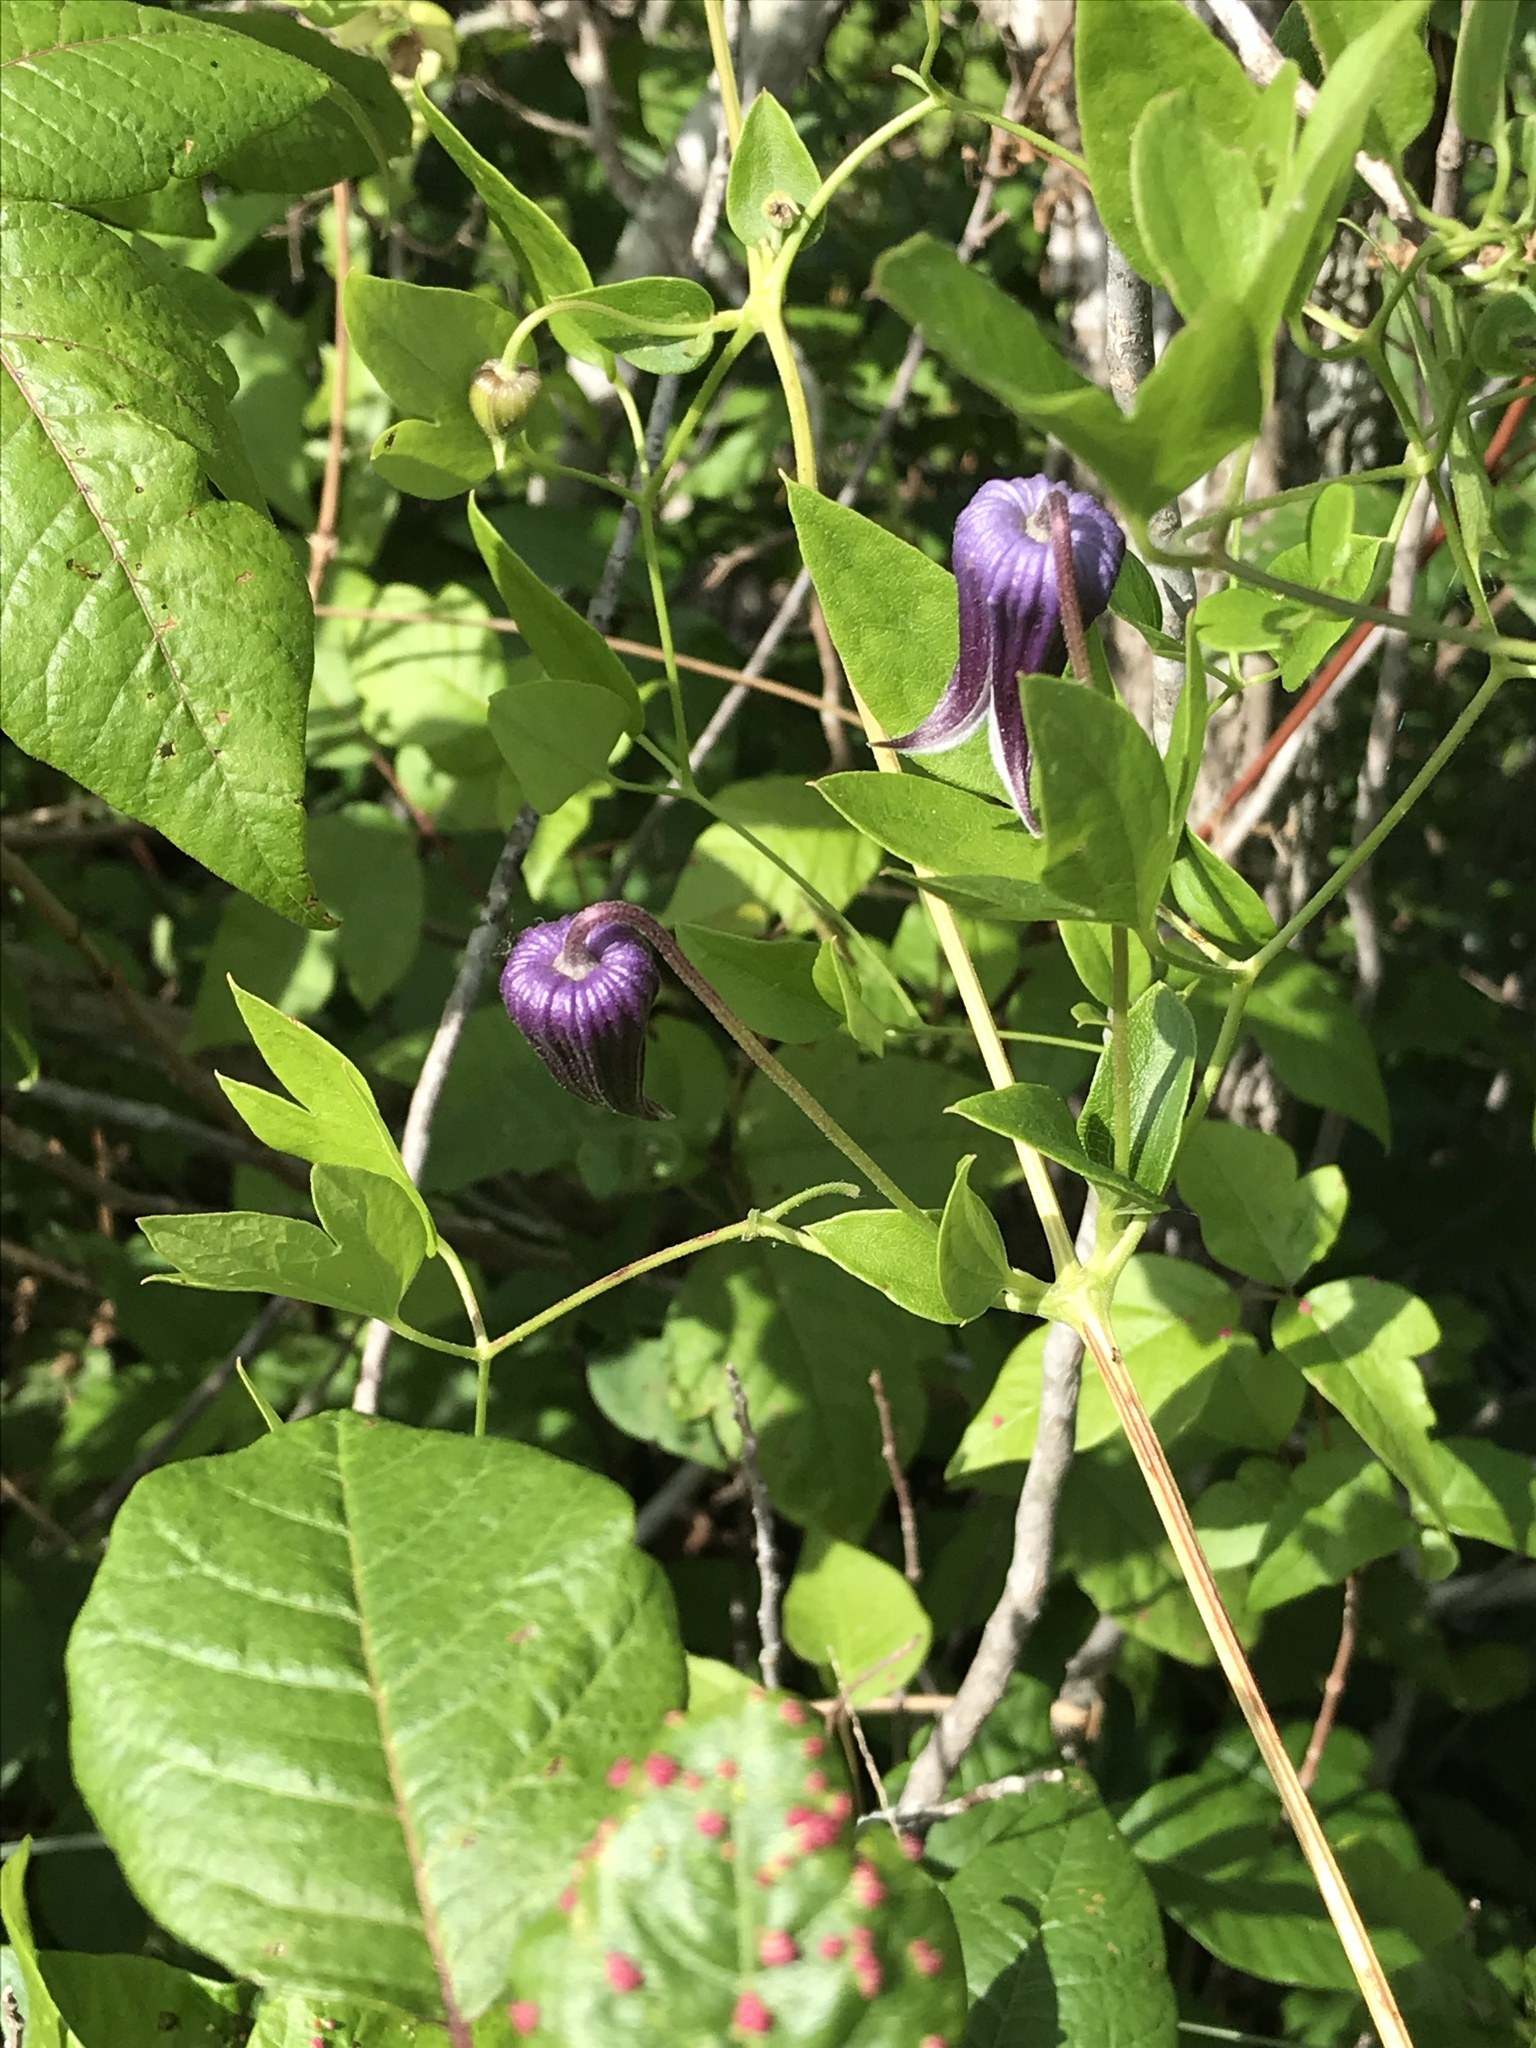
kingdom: Plantae
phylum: Tracheophyta
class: Magnoliopsida
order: Ranunculales
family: Ranunculaceae
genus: Clematis
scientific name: Clematis pitcheri
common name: Bellflower clematis
